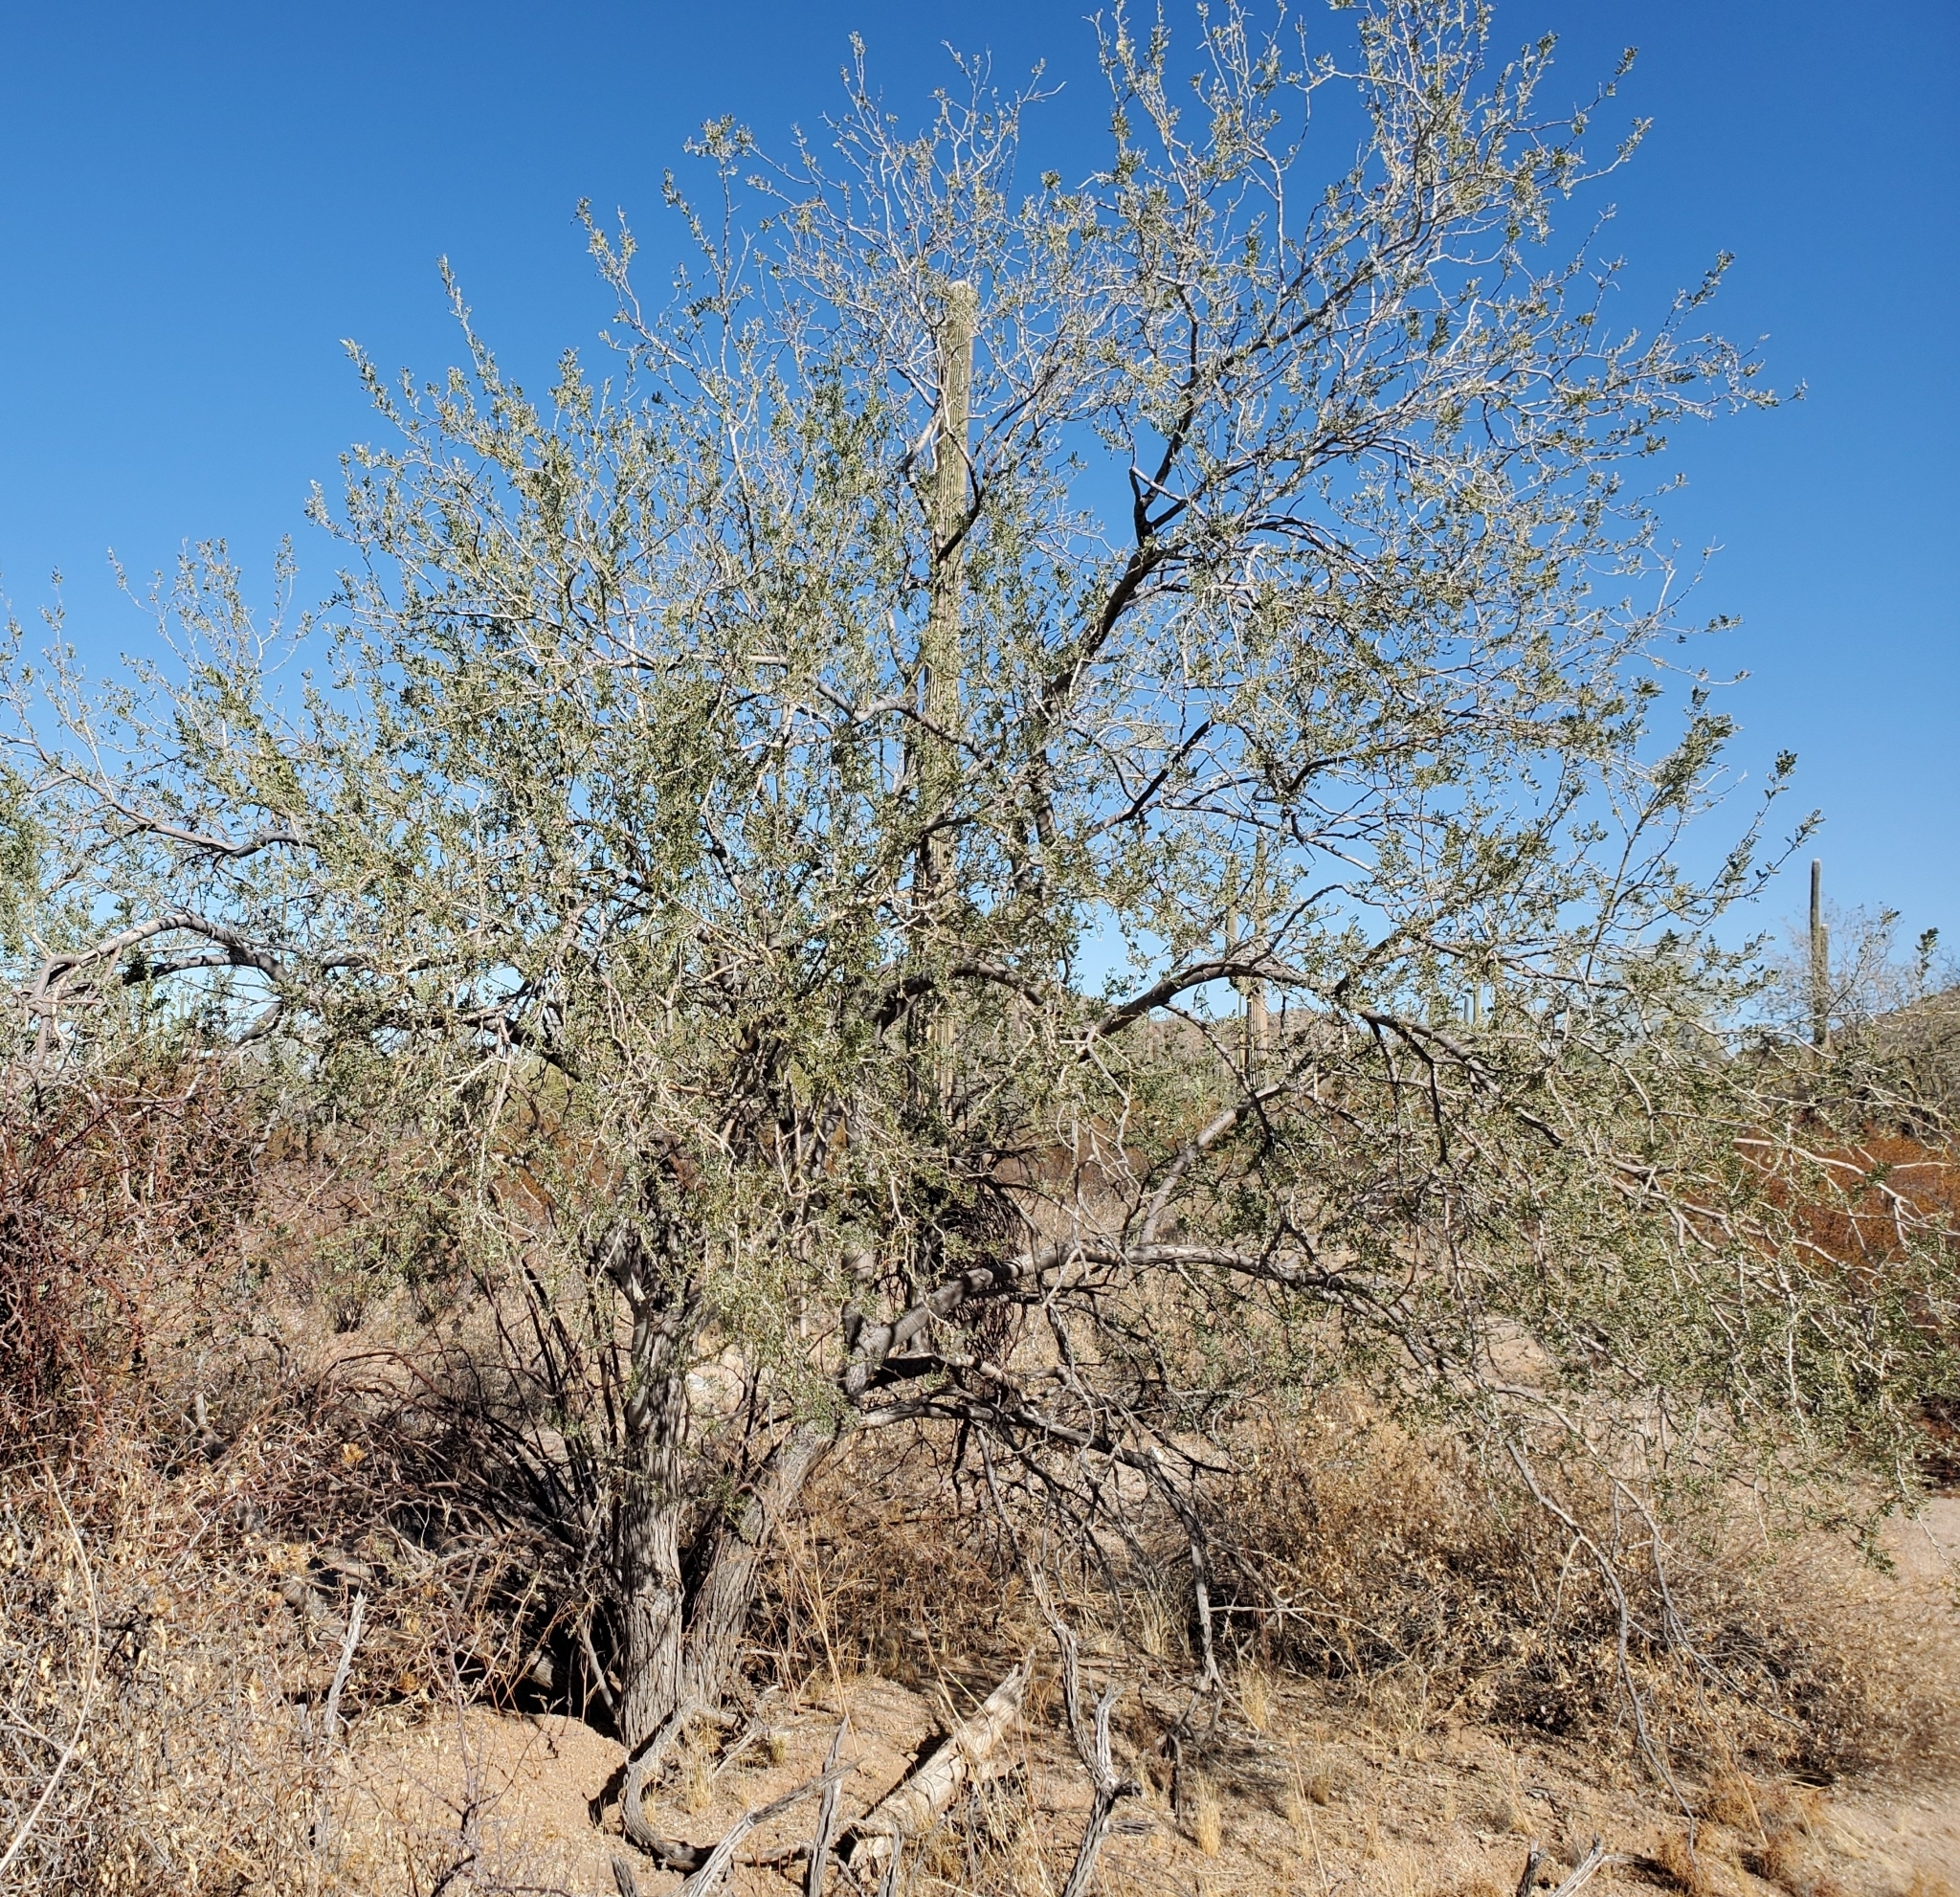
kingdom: Plantae
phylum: Tracheophyta
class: Magnoliopsida
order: Fabales
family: Fabaceae
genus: Olneya
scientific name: Olneya tesota
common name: Desert ironwood
